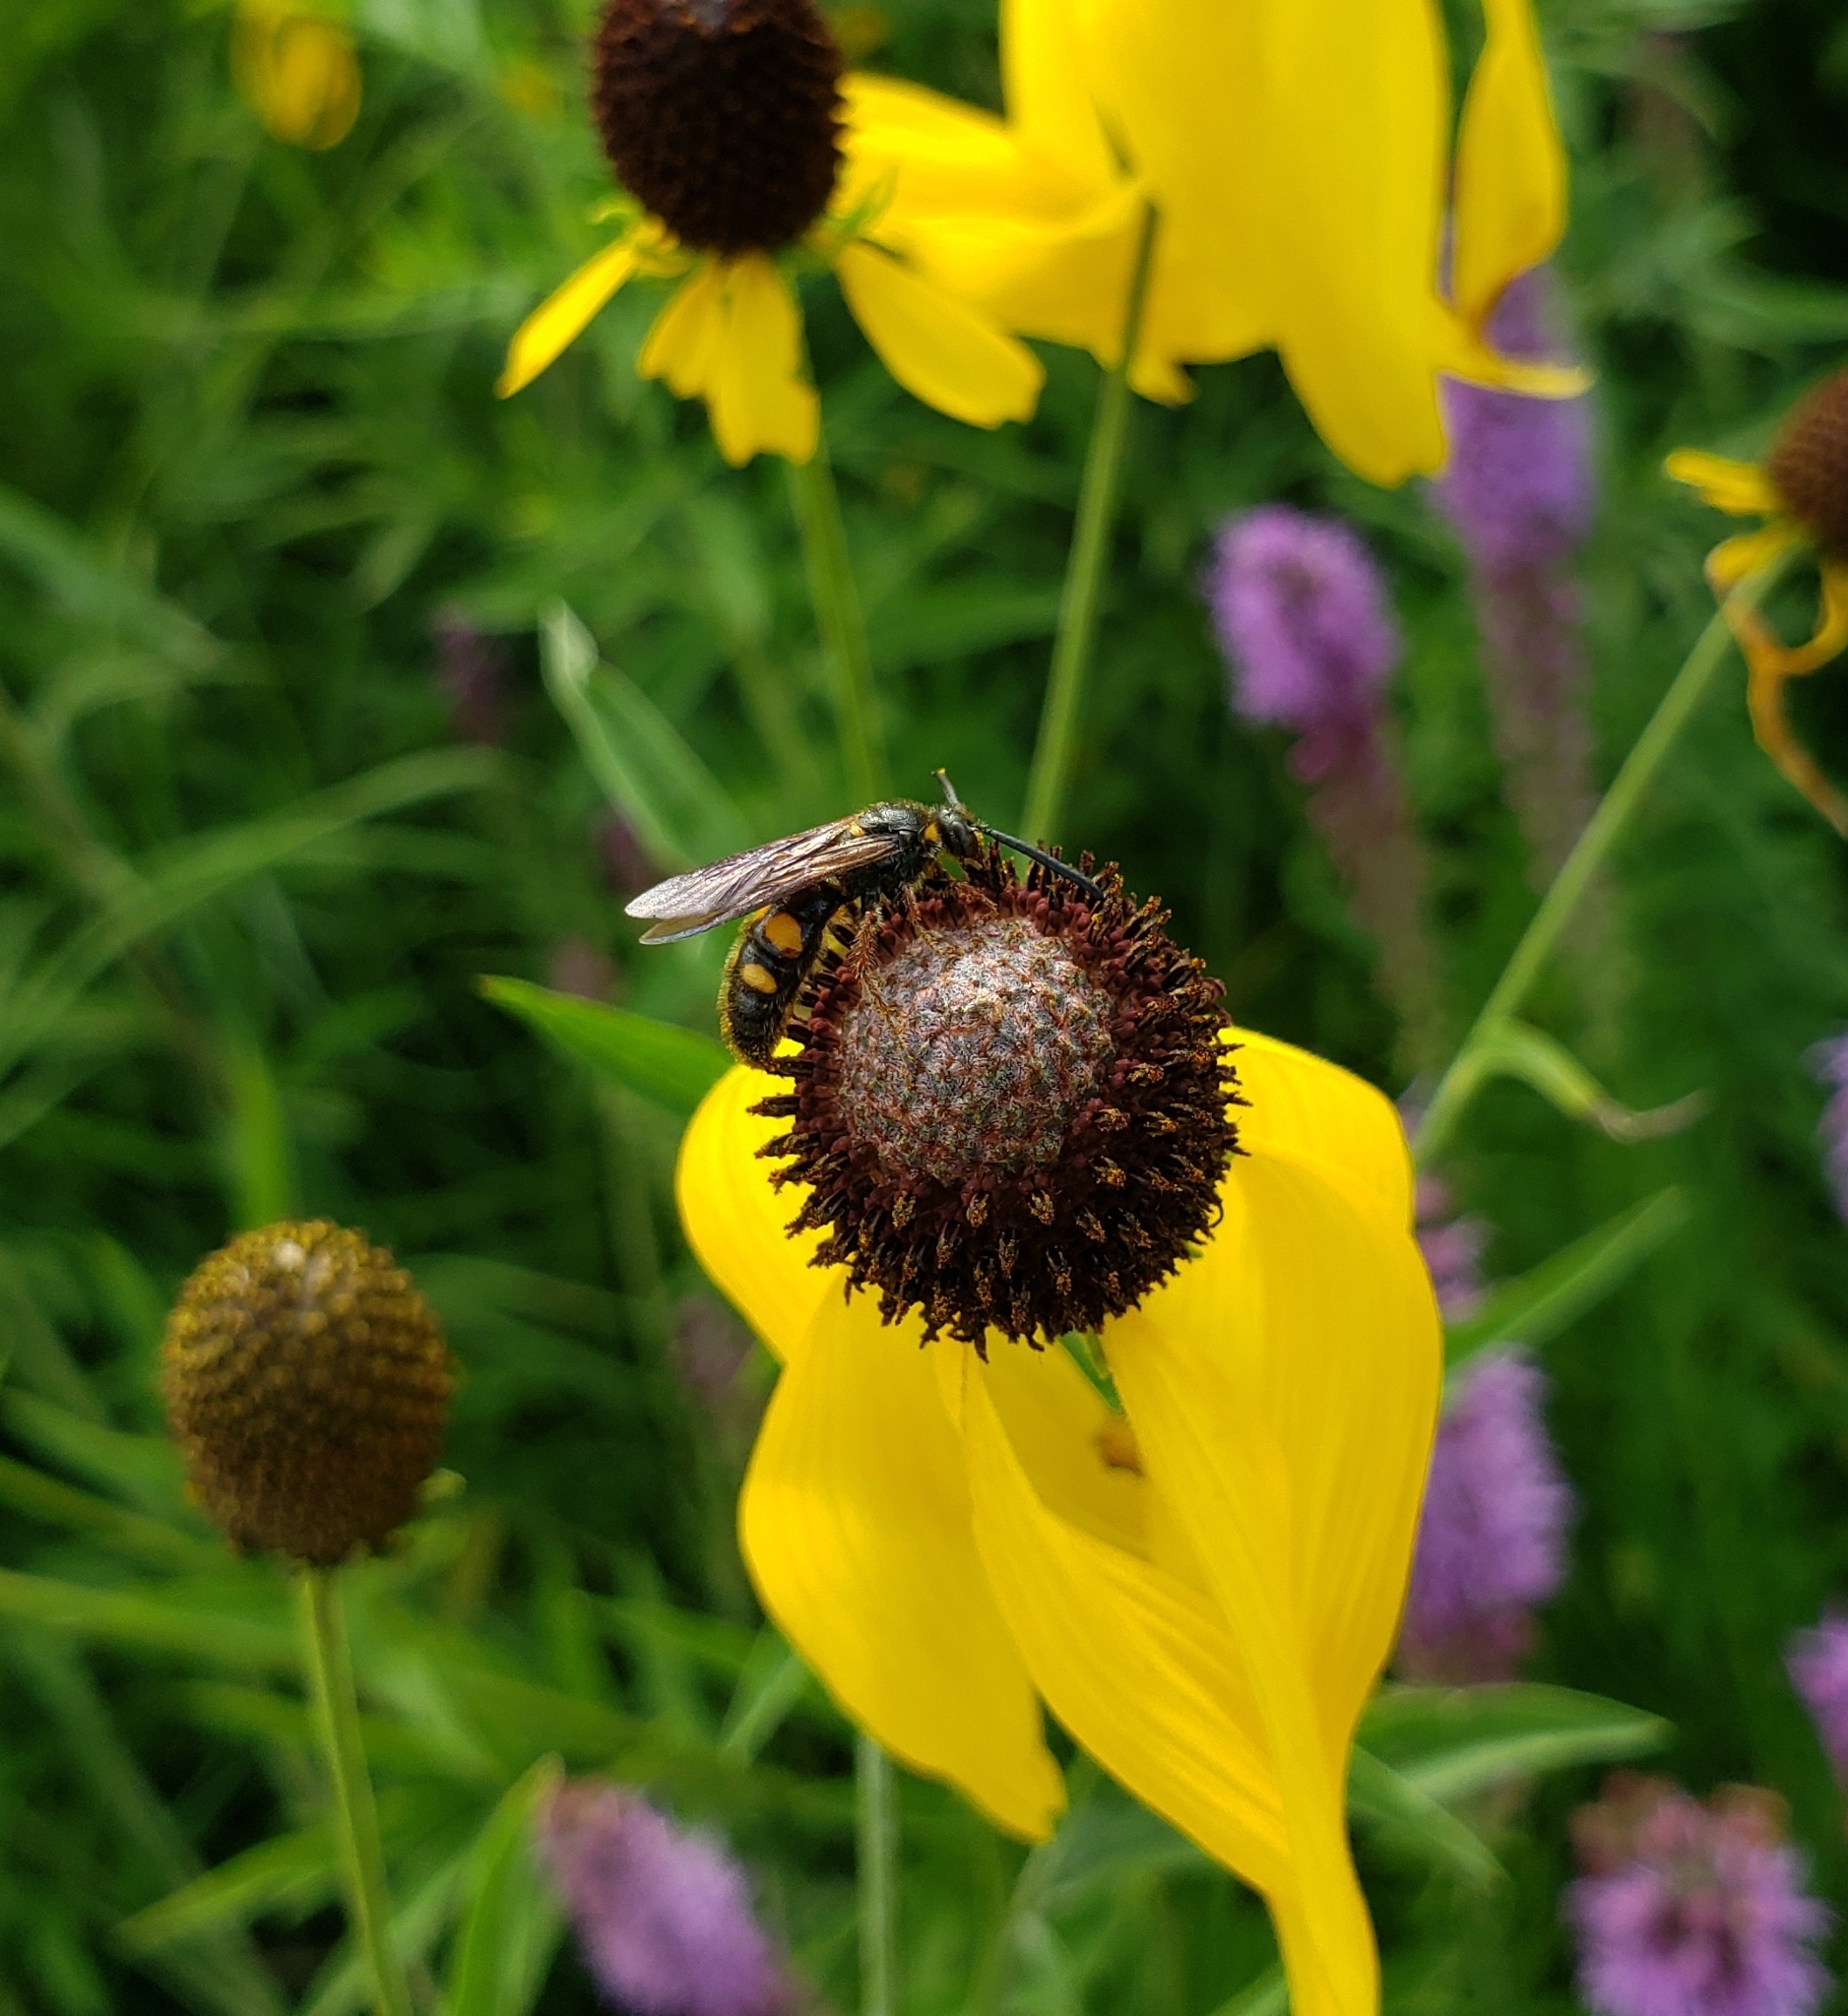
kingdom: Animalia
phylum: Arthropoda
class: Insecta
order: Hymenoptera
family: Scoliidae
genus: Scolia
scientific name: Scolia nobilitata
